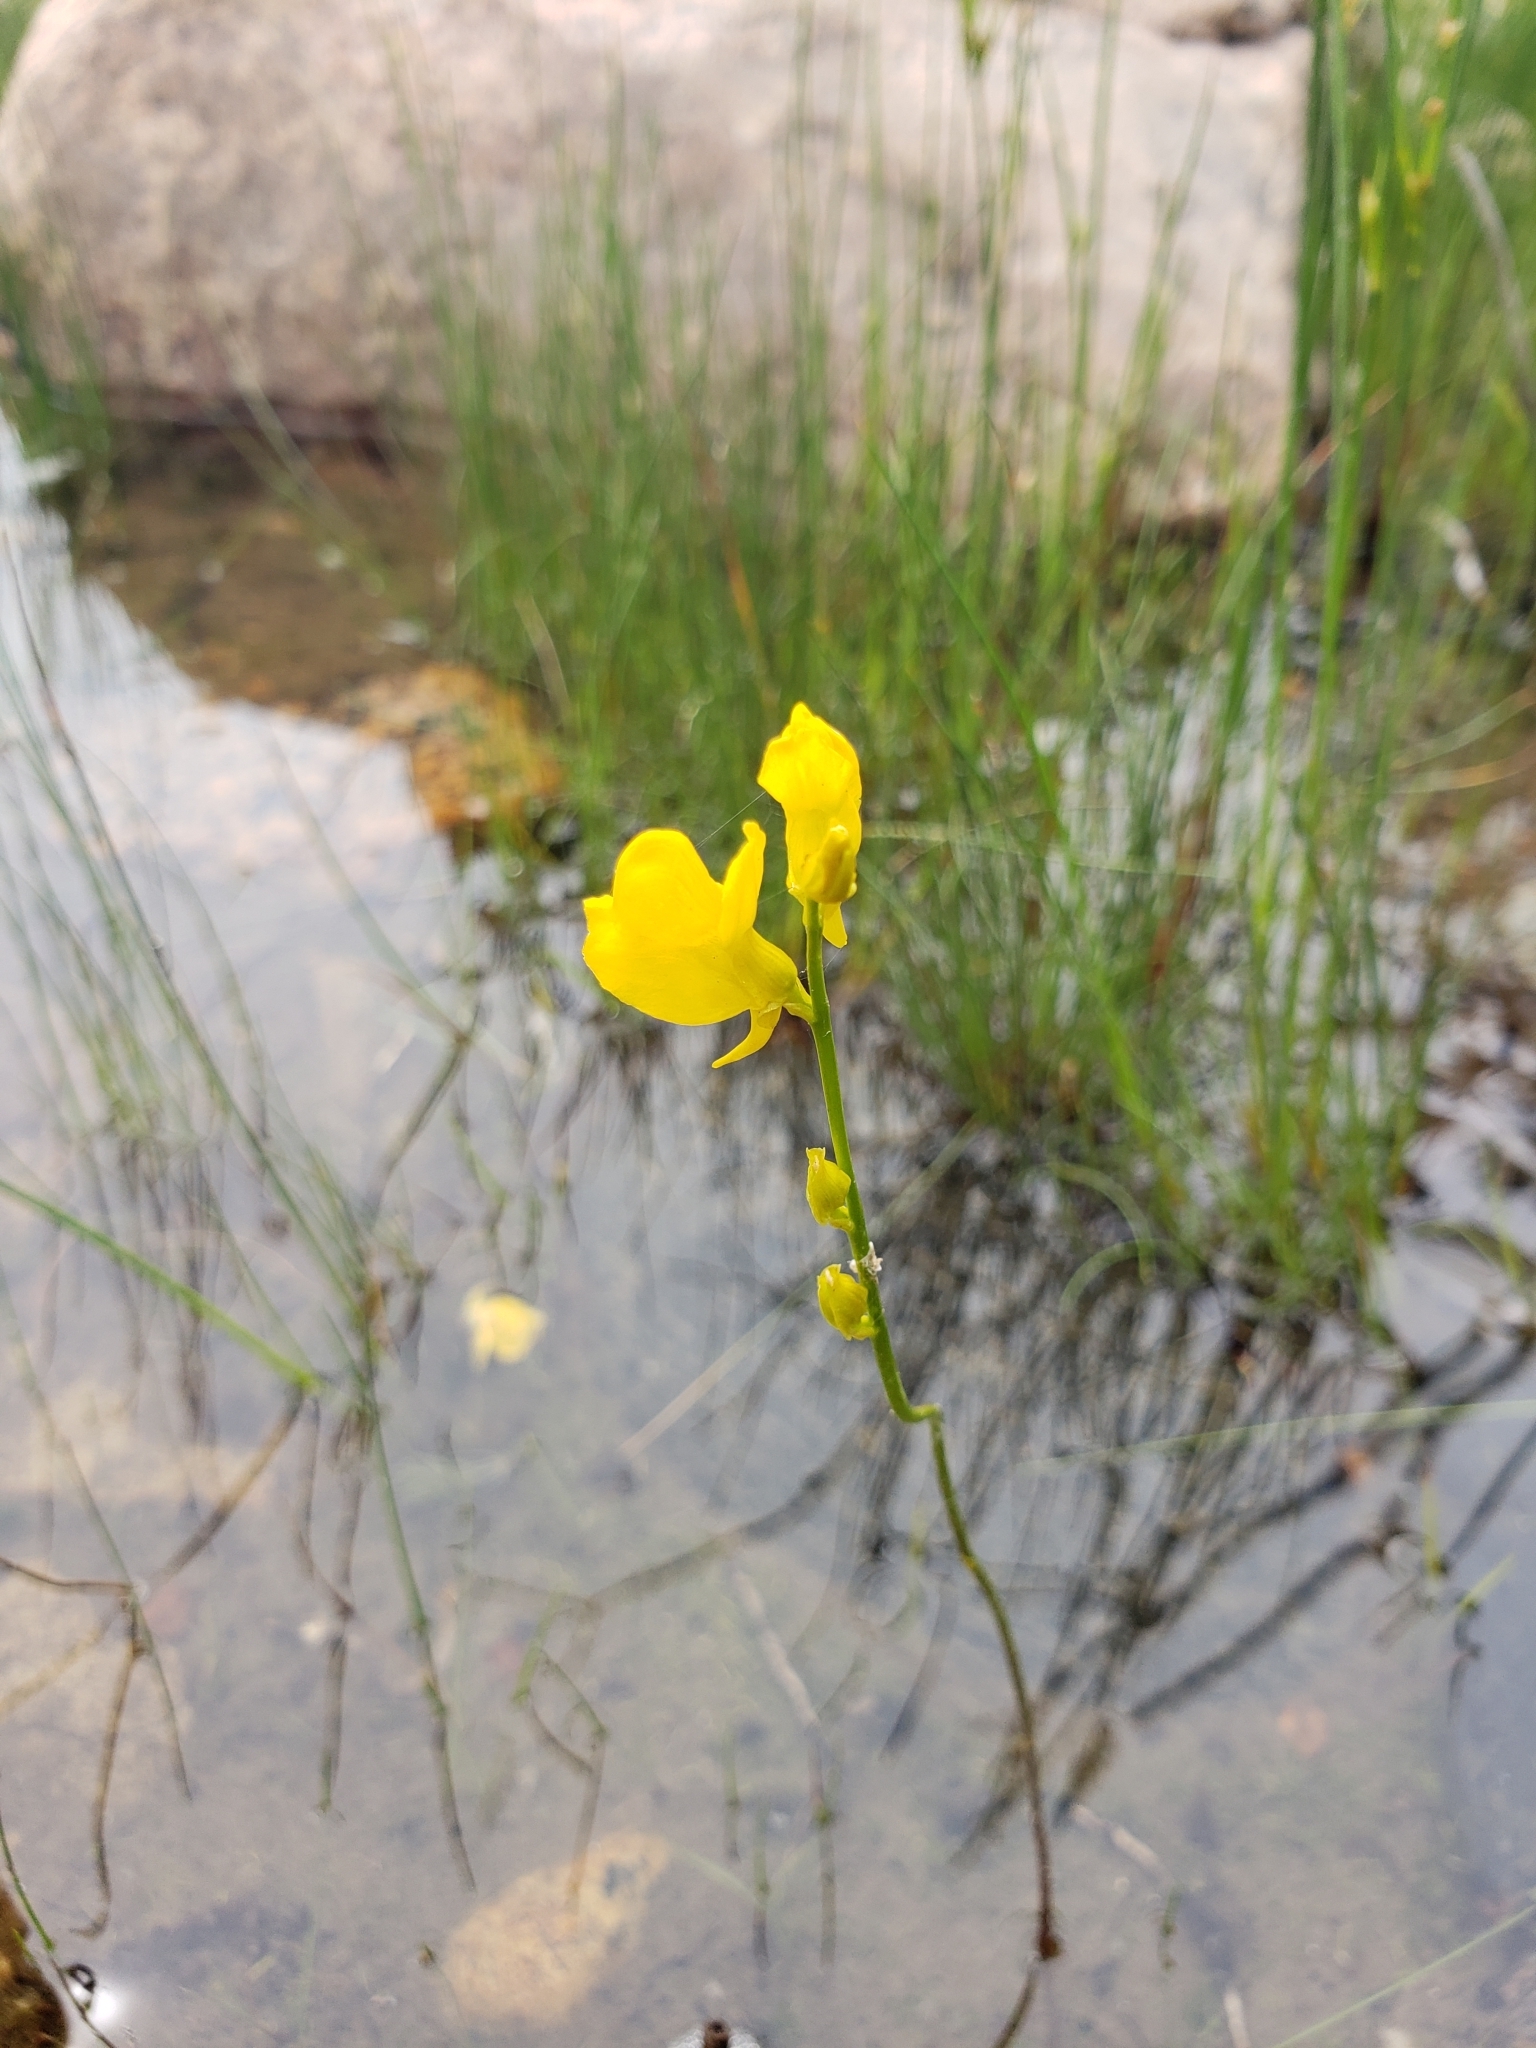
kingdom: Plantae
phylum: Tracheophyta
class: Magnoliopsida
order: Lamiales
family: Lentibulariaceae
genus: Utricularia
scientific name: Utricularia cornuta
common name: Horned bladderwort
